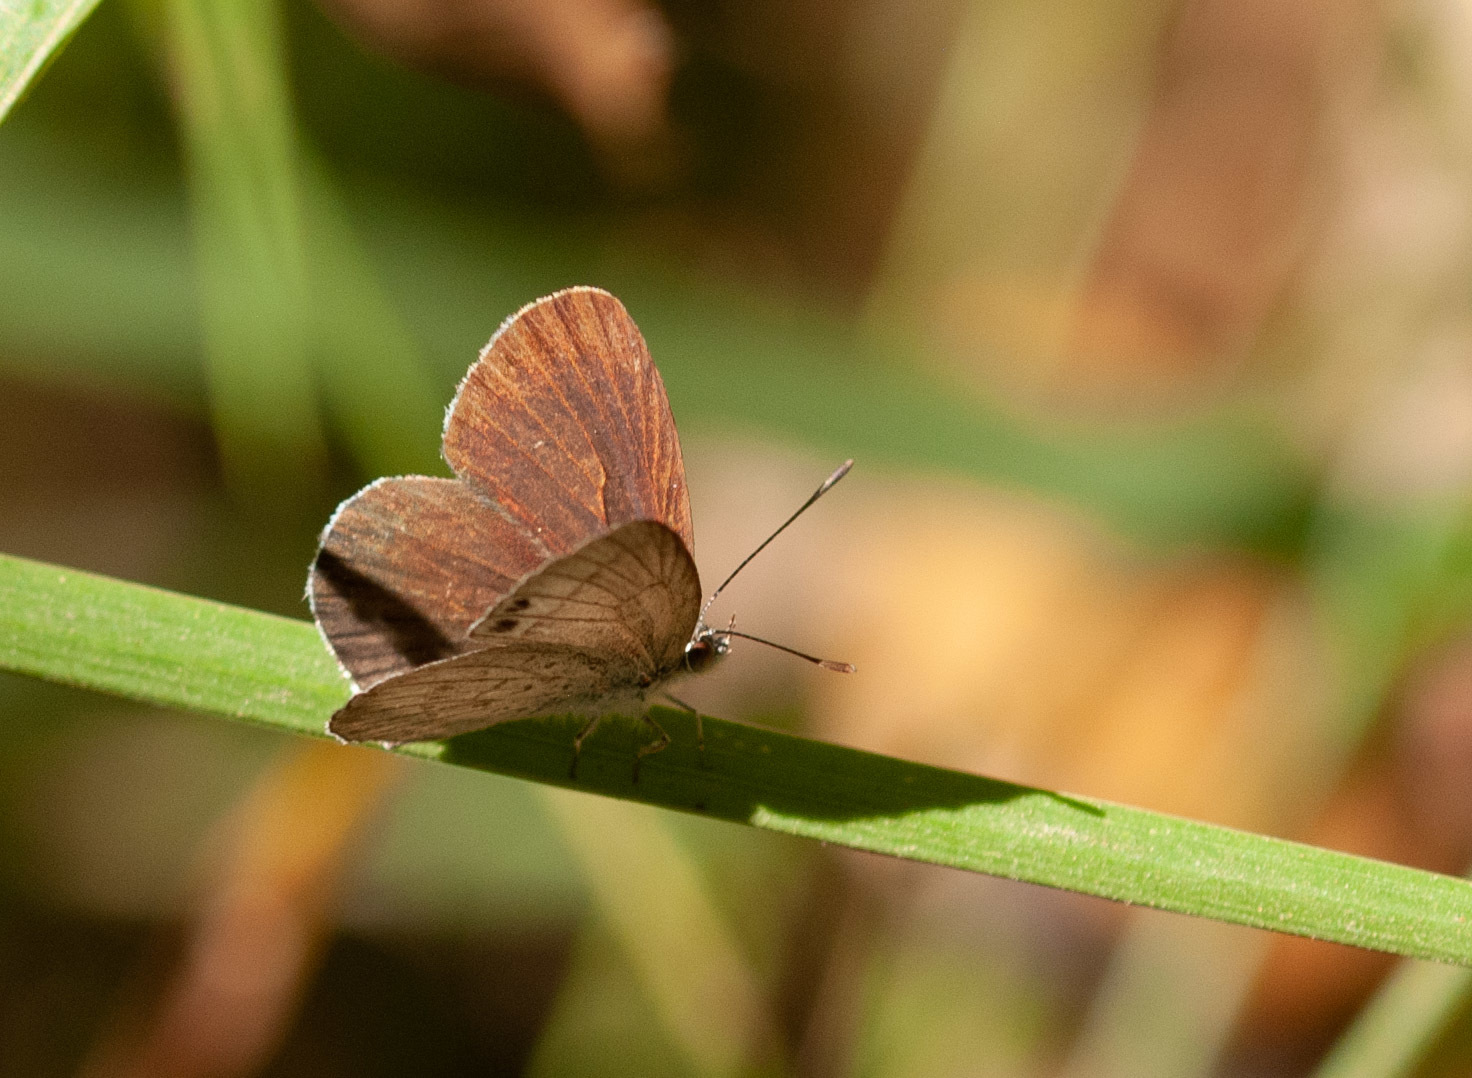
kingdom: Animalia
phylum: Arthropoda
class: Insecta
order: Lepidoptera
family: Lycaenidae
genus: Candalides
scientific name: Candalides
